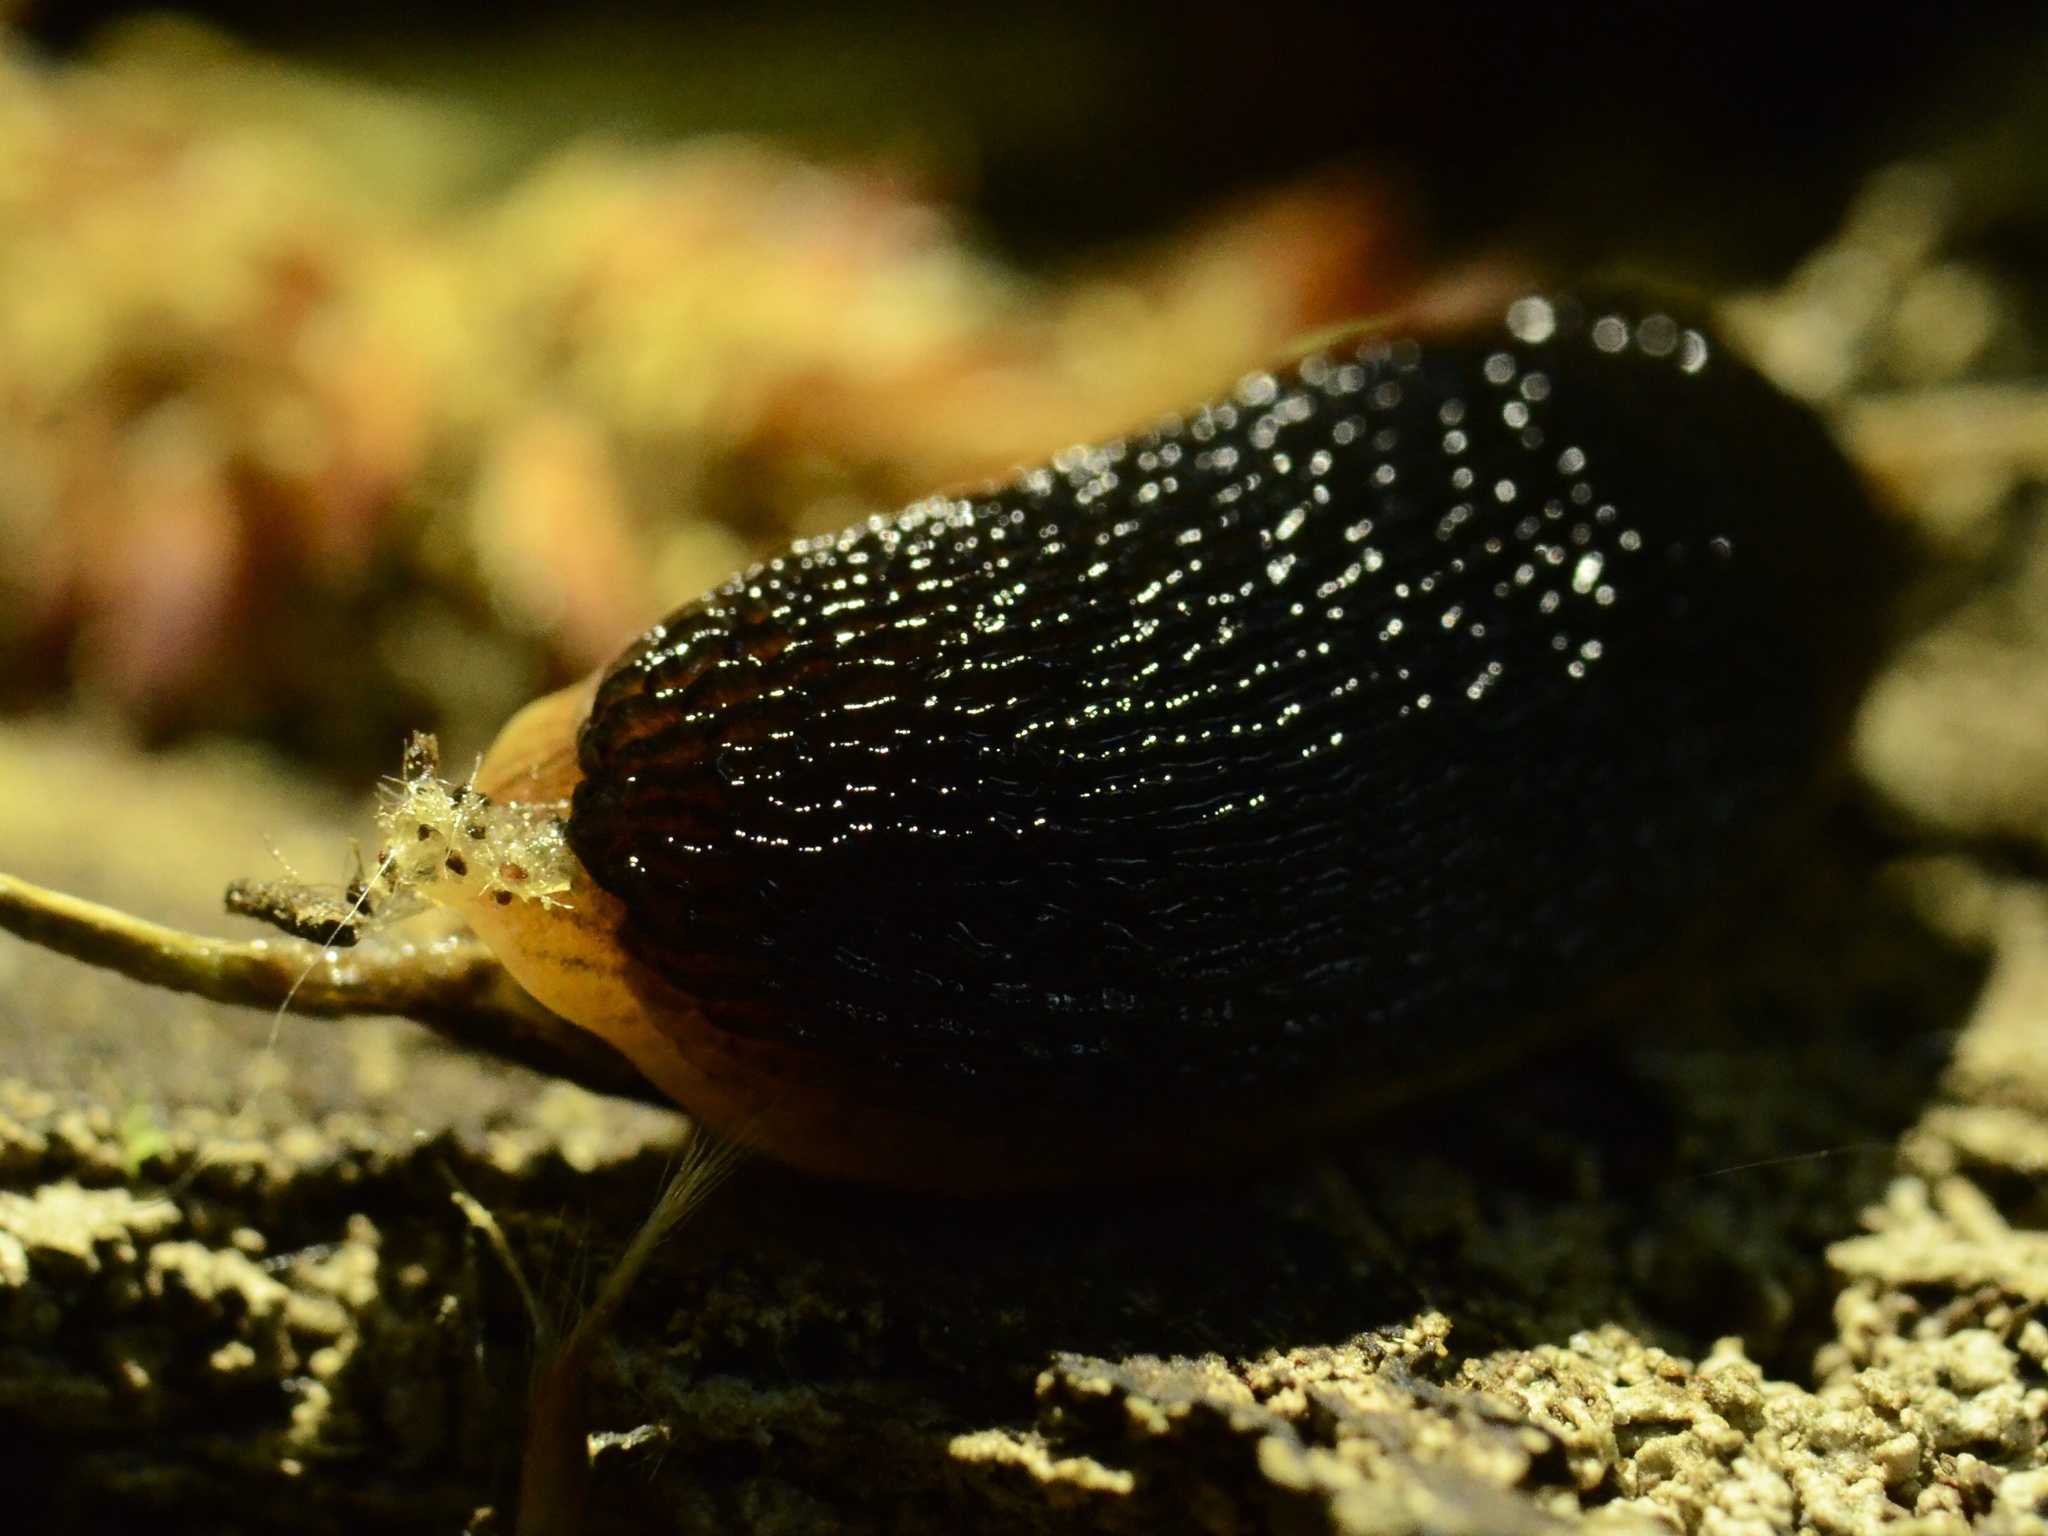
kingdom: Animalia
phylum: Mollusca
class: Gastropoda
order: Stylommatophora
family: Arionidae
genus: Arion
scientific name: Arion fuscus
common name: Northern dusky slug
